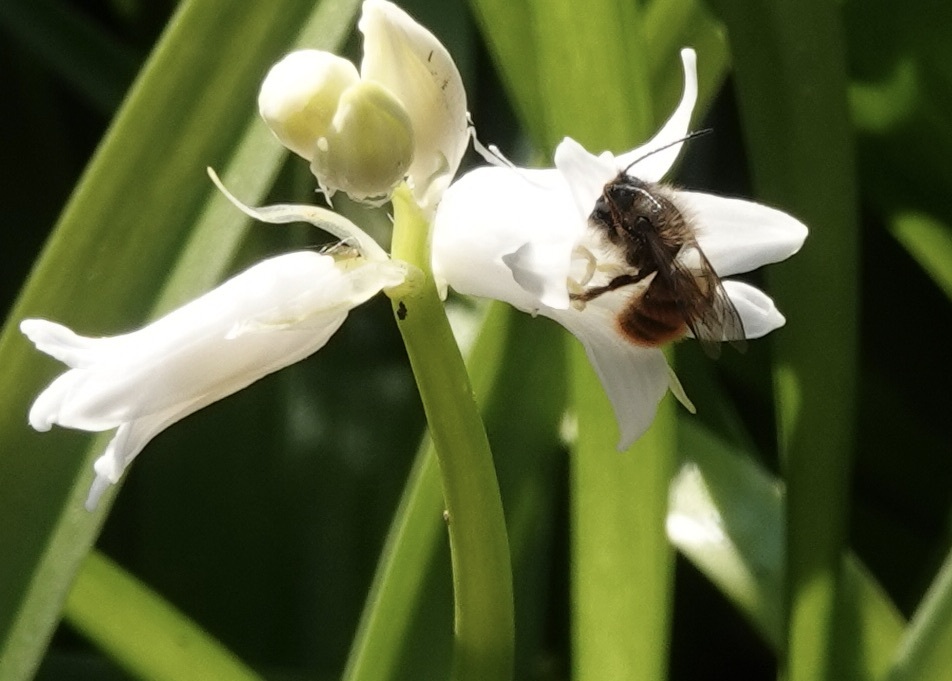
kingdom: Animalia
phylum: Arthropoda
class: Insecta
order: Hymenoptera
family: Megachilidae
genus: Osmia
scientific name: Osmia bicornis
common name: Red mason bee
